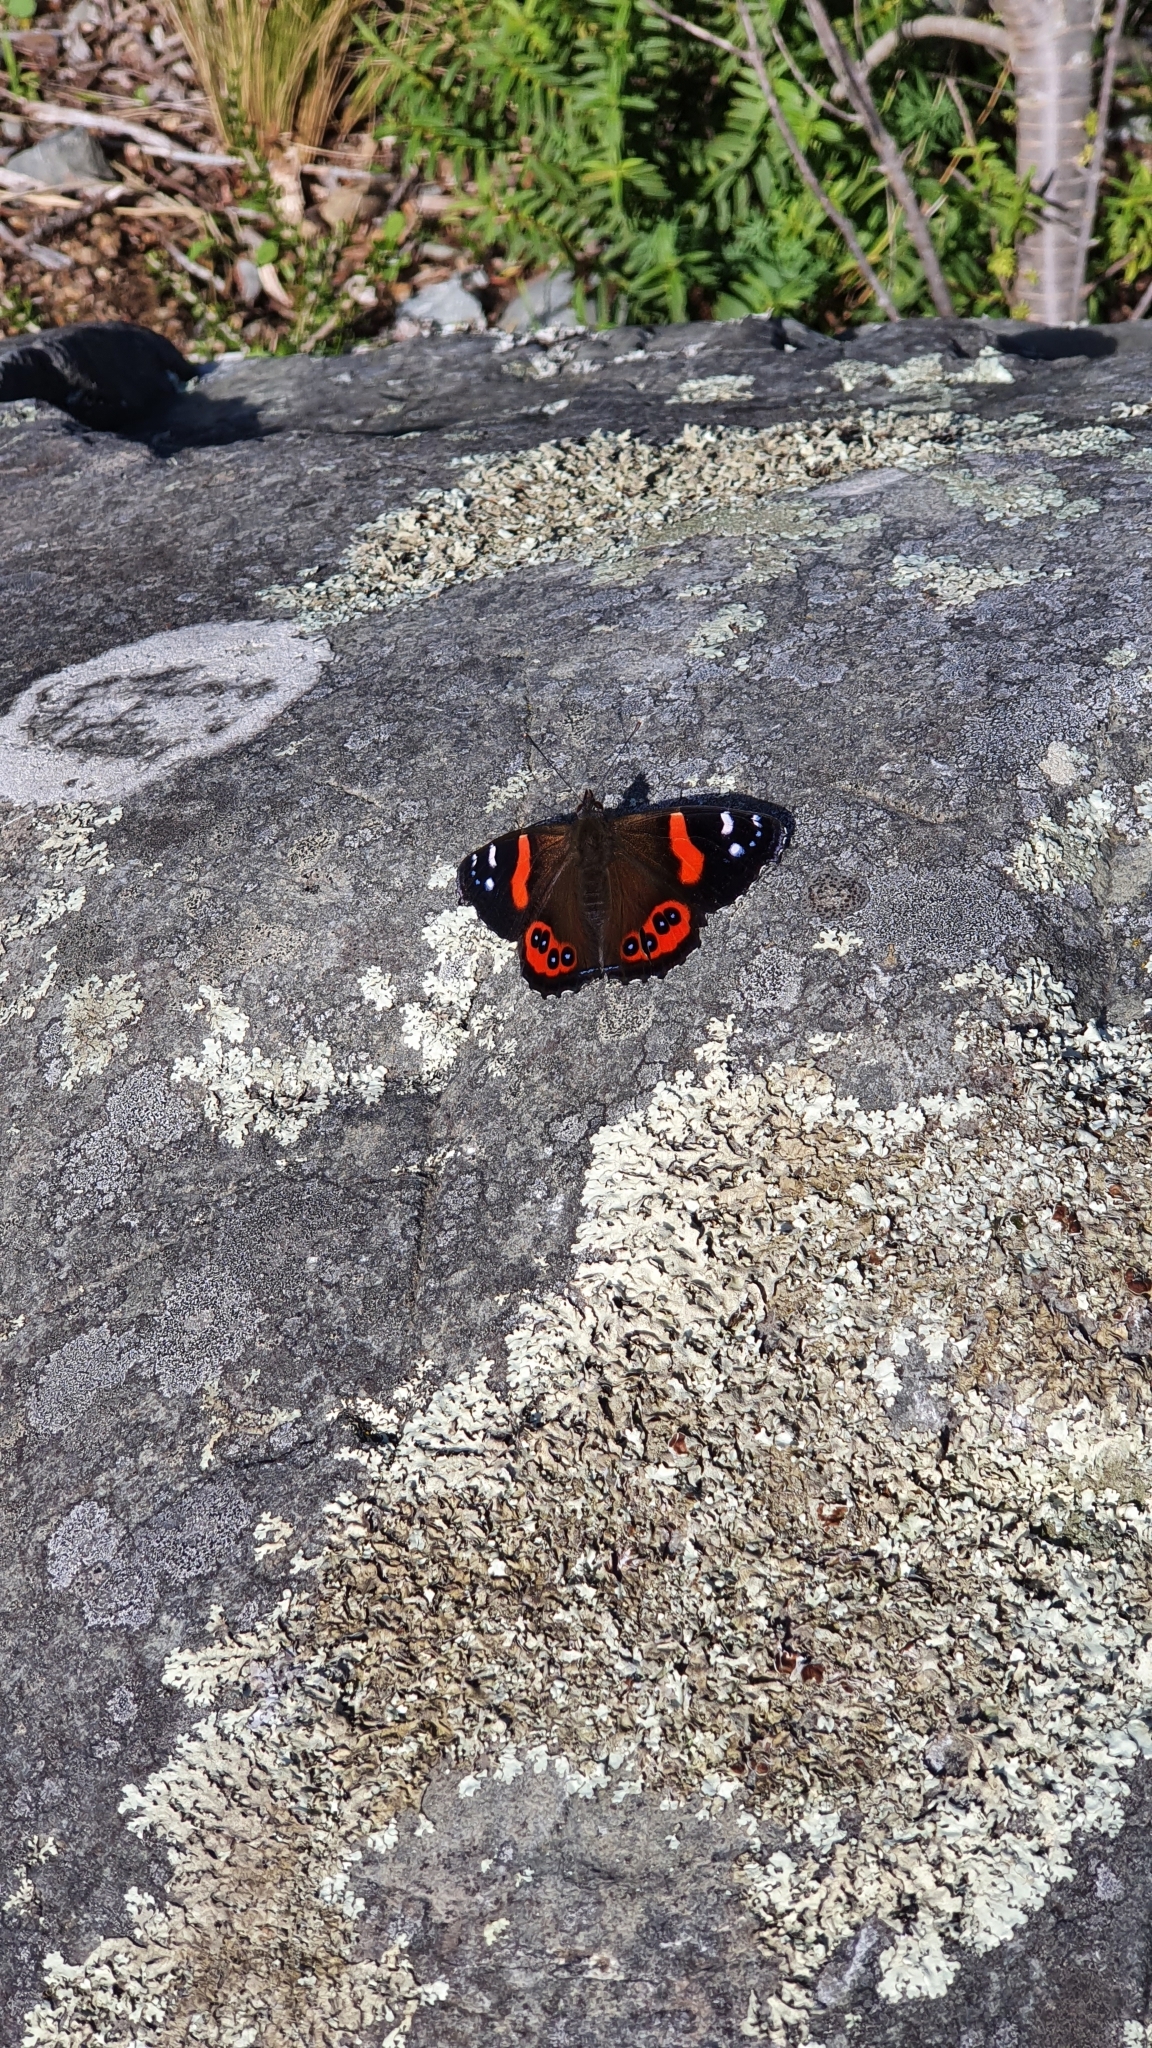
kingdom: Animalia
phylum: Arthropoda
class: Insecta
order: Lepidoptera
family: Nymphalidae
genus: Vanessa
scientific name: Vanessa gonerilla
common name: New zealand red admiral
